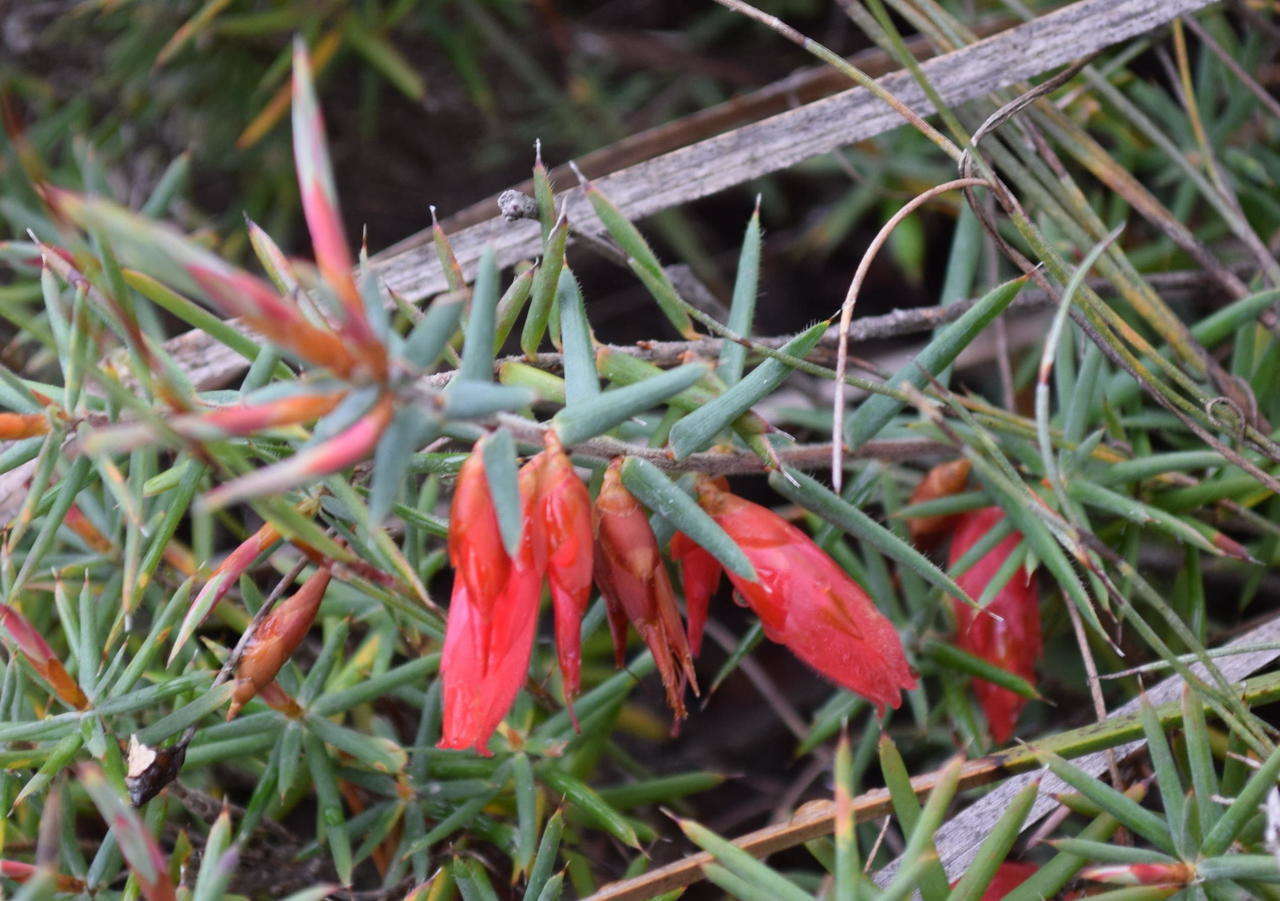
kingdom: Plantae
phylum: Tracheophyta
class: Magnoliopsida
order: Ericales
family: Ericaceae
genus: Stenanthera
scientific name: Stenanthera conostephioides
